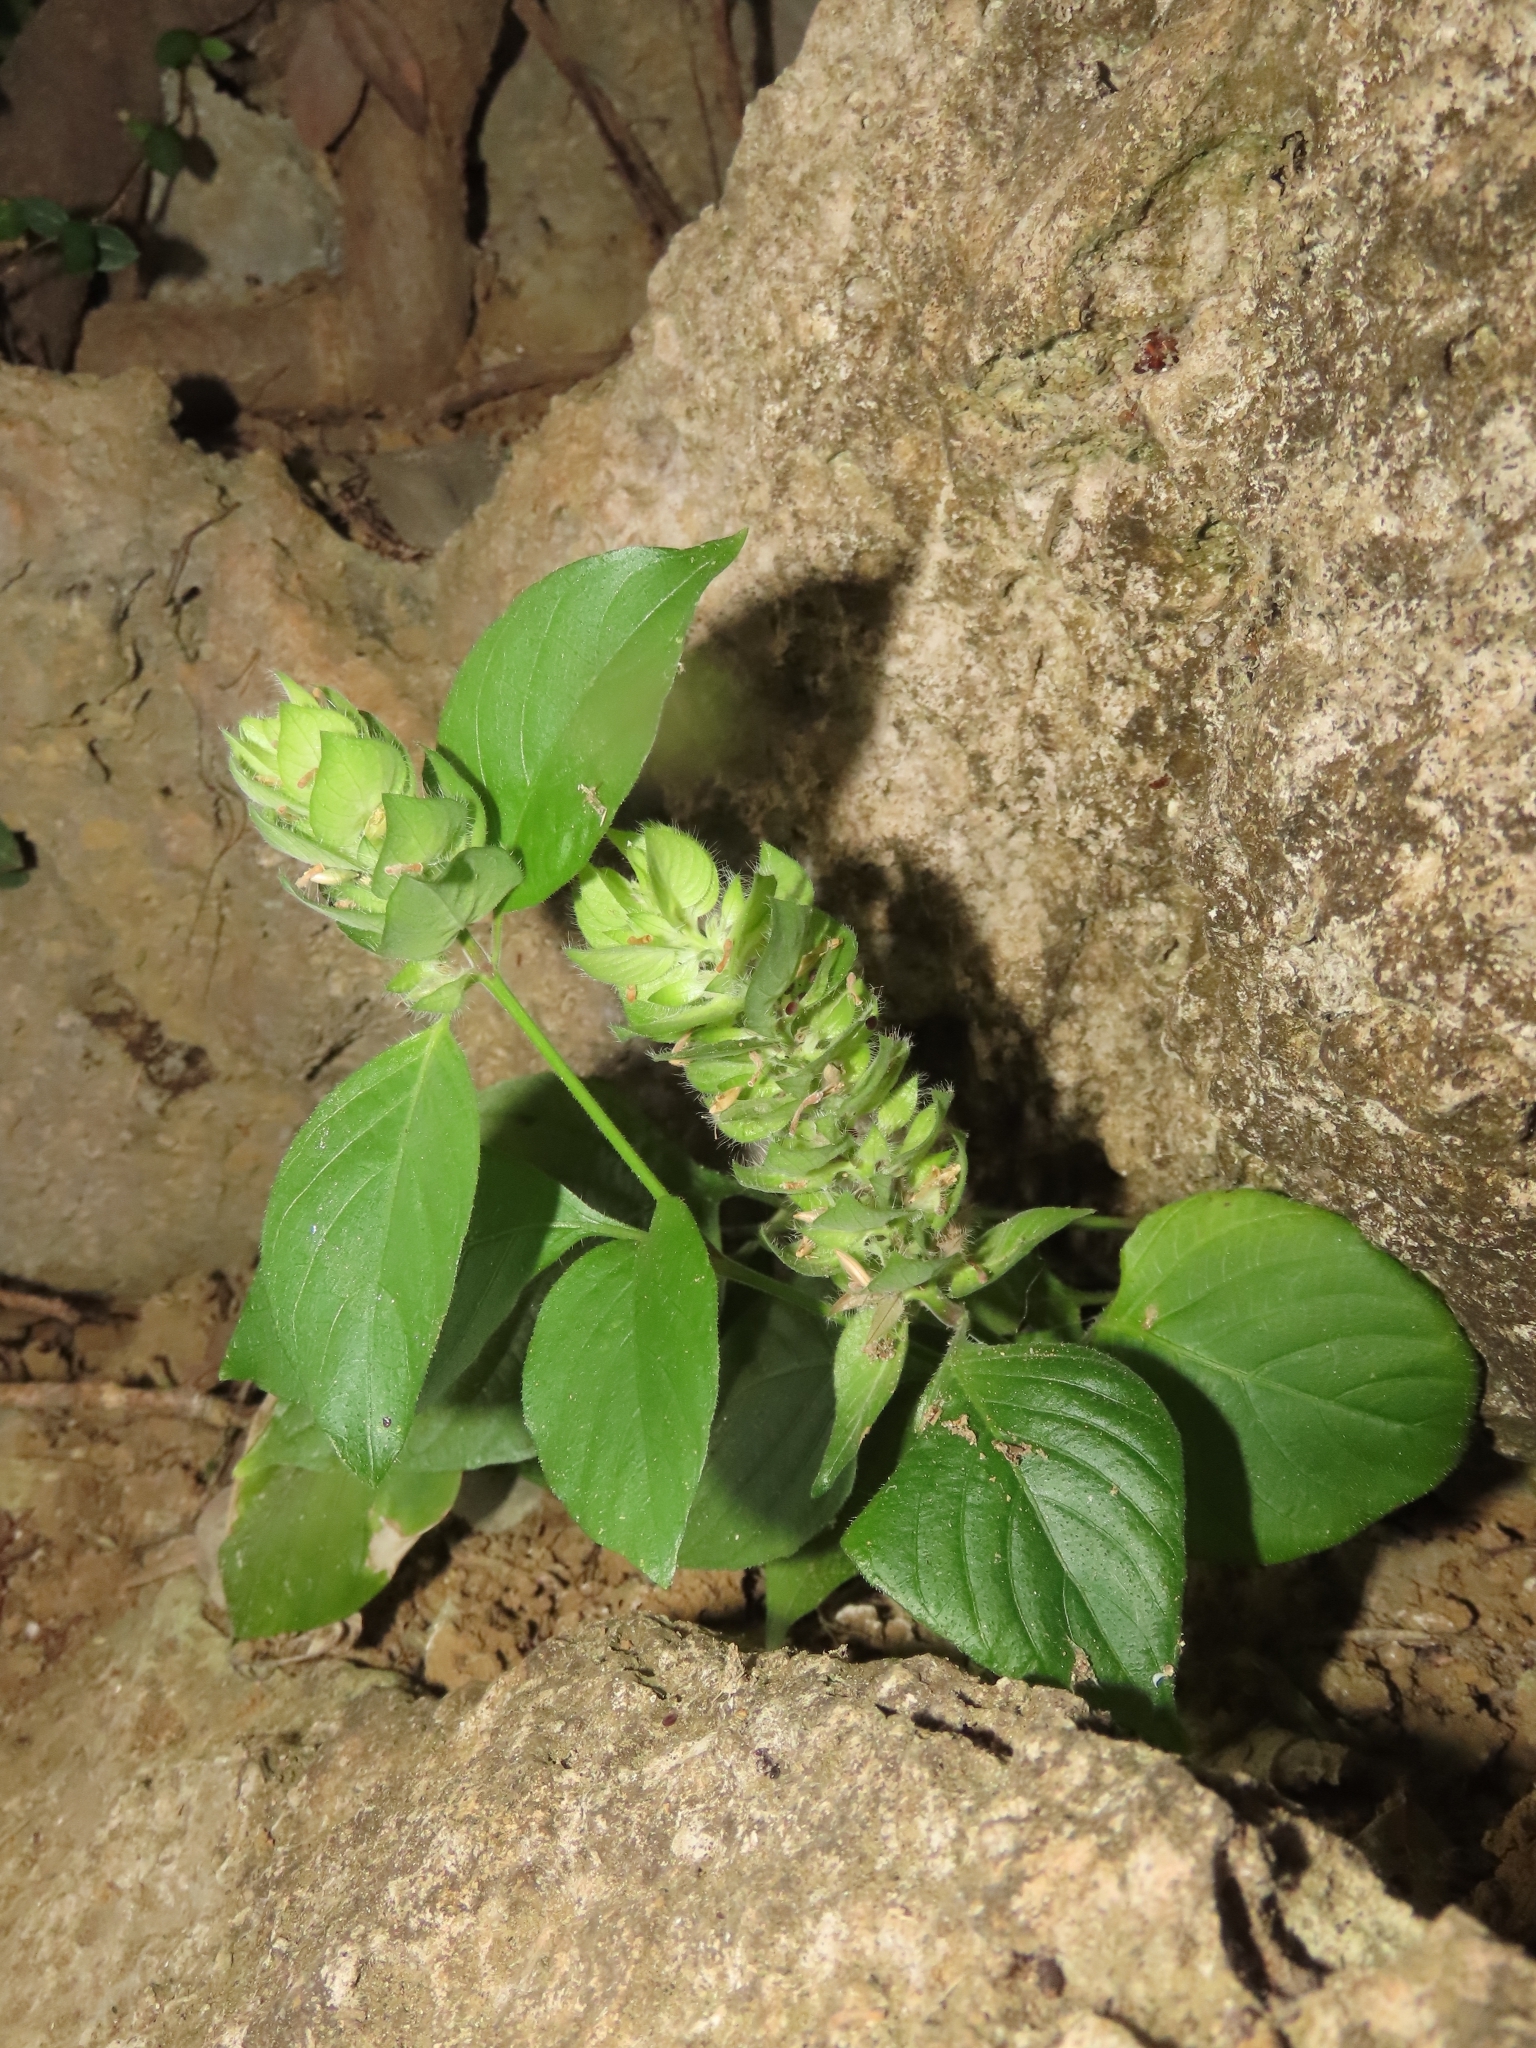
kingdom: Plantae
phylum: Tracheophyta
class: Magnoliopsida
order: Lamiales
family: Acanthaceae
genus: Ruellia
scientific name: Ruellia blechum
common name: Browne's blechum
